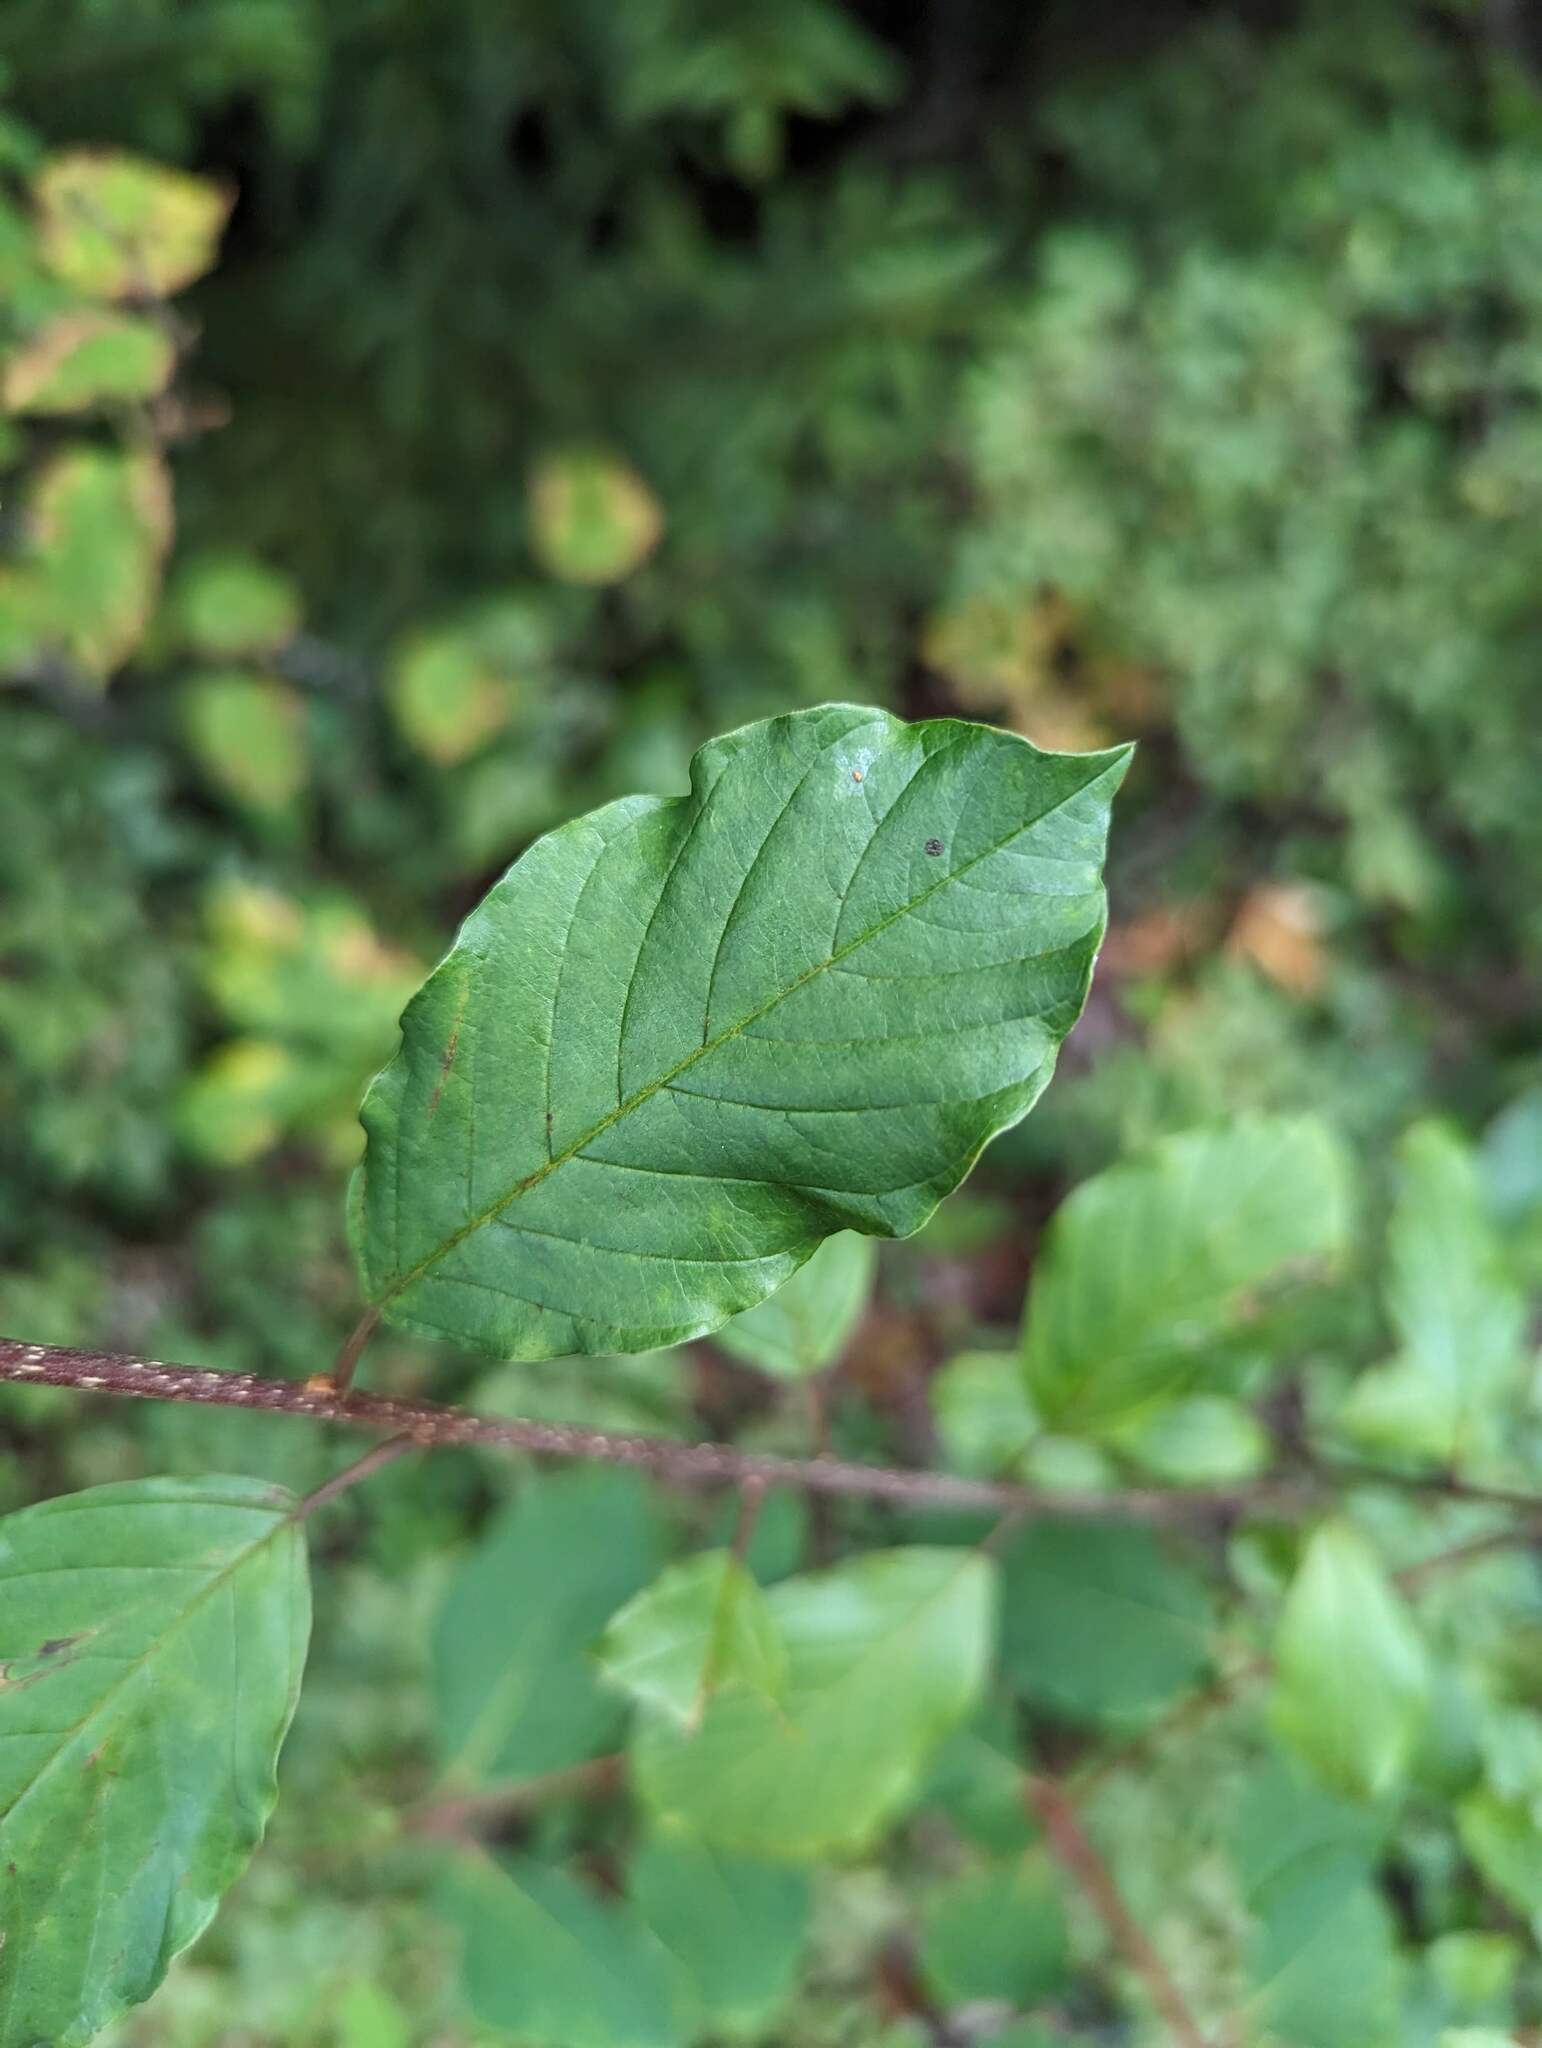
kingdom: Plantae
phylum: Tracheophyta
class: Magnoliopsida
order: Rosales
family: Rhamnaceae
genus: Frangula
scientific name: Frangula alnus
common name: Alder buckthorn
